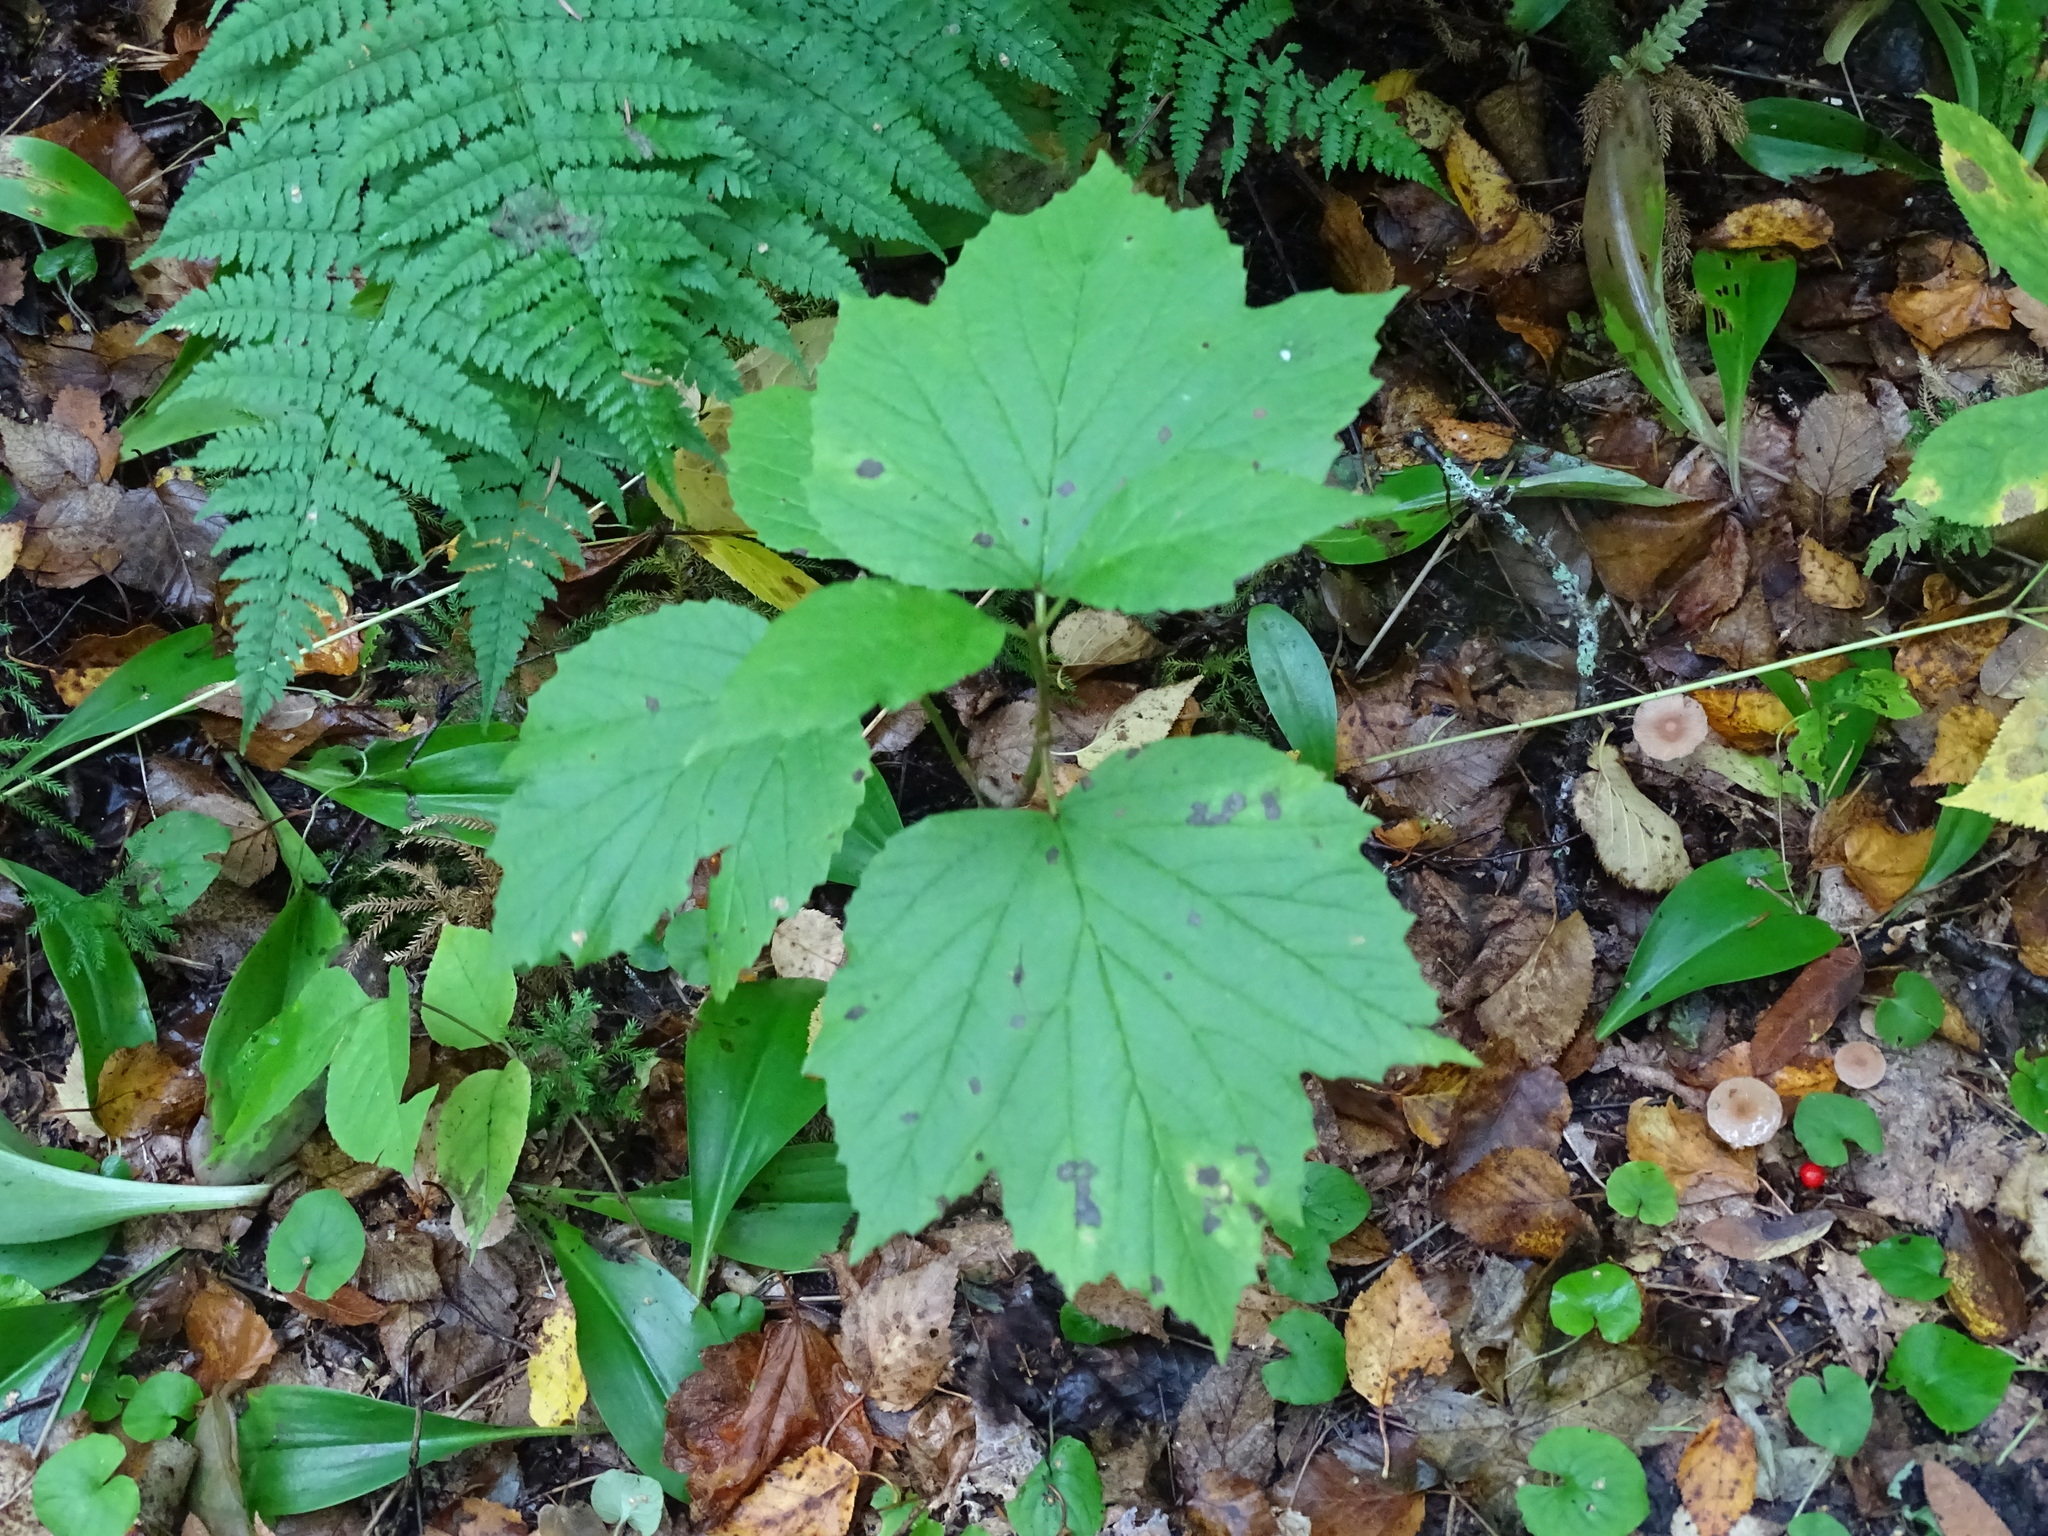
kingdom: Plantae
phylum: Tracheophyta
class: Magnoliopsida
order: Dipsacales
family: Viburnaceae
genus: Viburnum
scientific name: Viburnum edule
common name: Mooseberry
